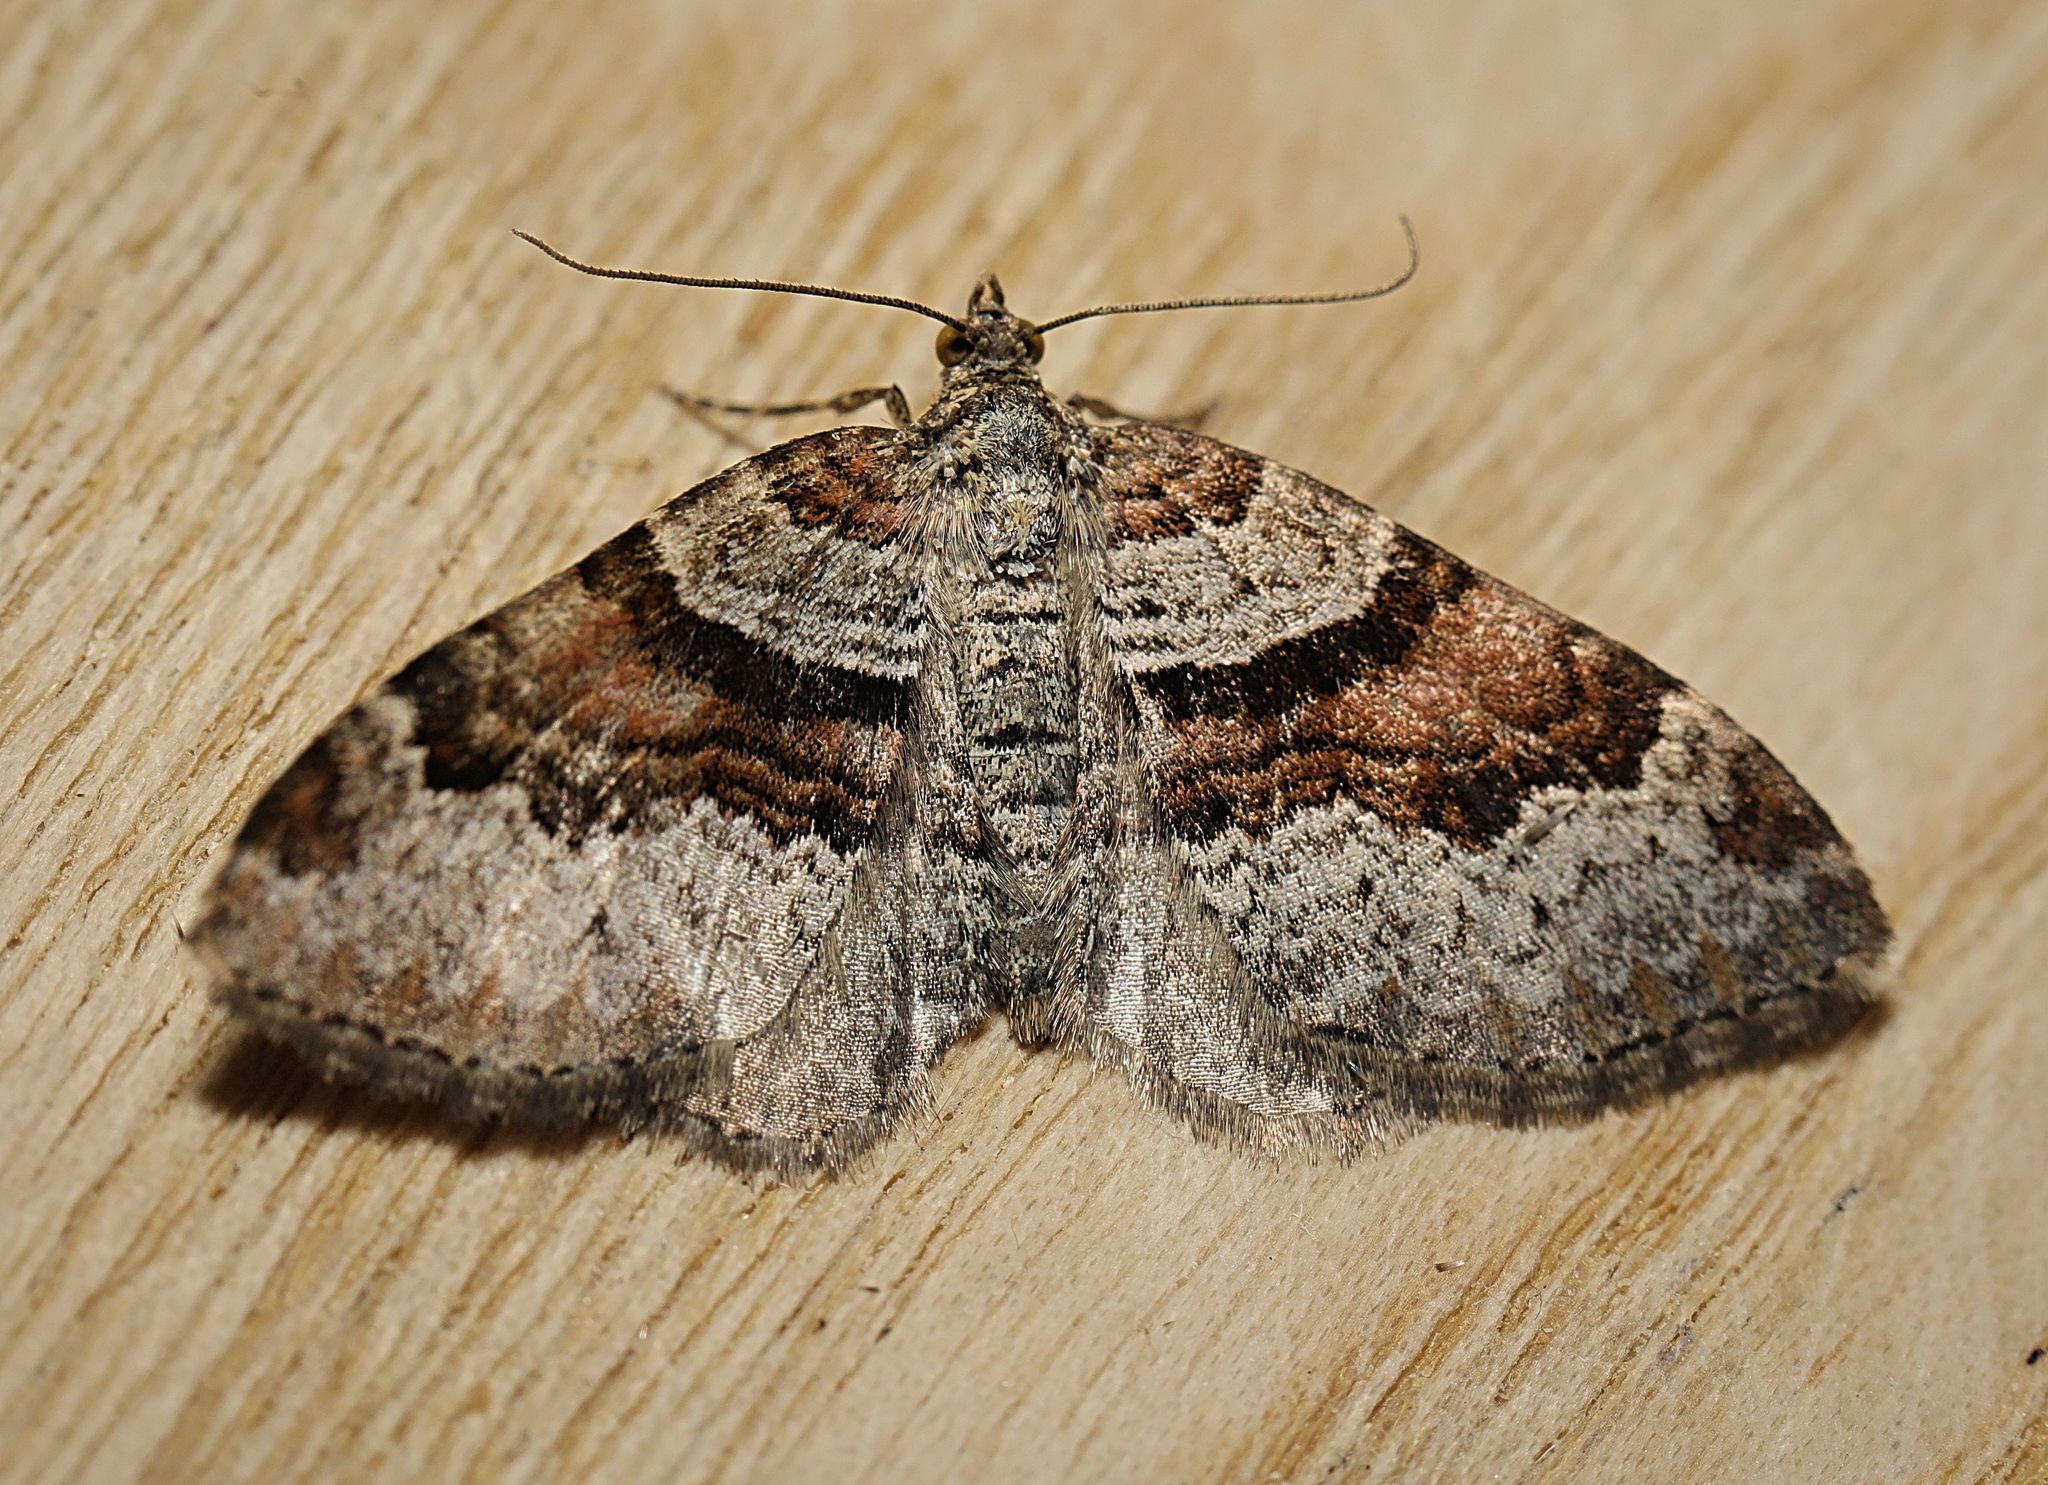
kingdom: Animalia
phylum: Arthropoda
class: Insecta
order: Lepidoptera
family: Geometridae
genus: Xanthorhoe
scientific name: Xanthorhoe designata
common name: Flame carpet
